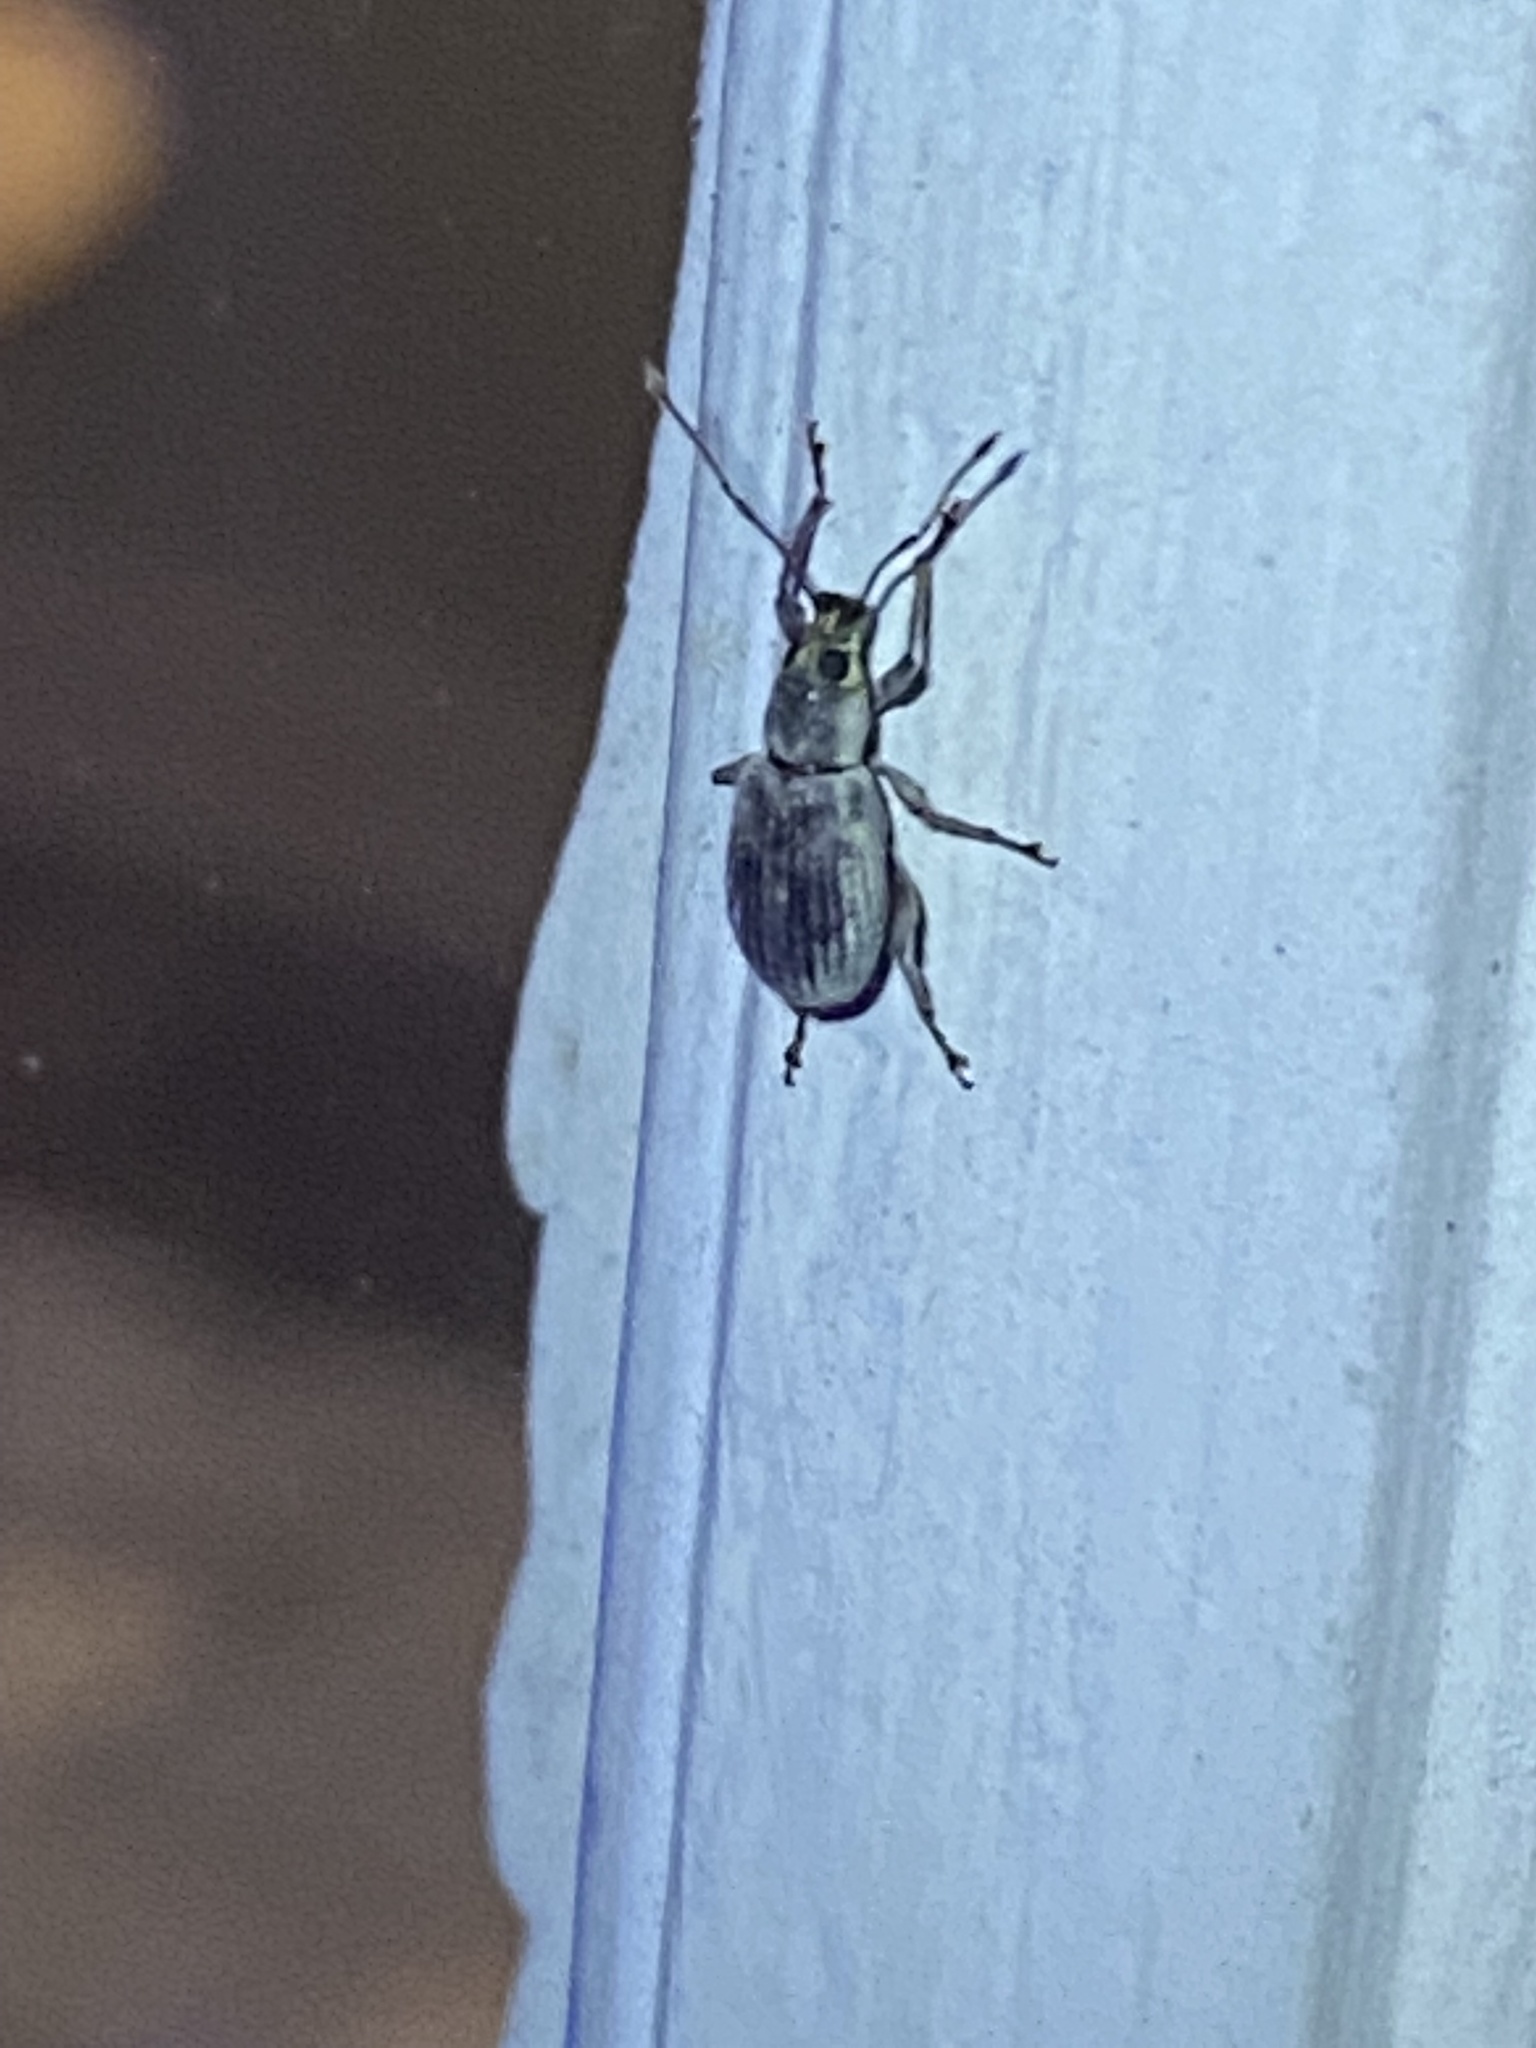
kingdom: Animalia
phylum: Arthropoda
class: Insecta
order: Coleoptera
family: Curculionidae
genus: Cyrtepistomus
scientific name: Cyrtepistomus castaneus
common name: Weevil
